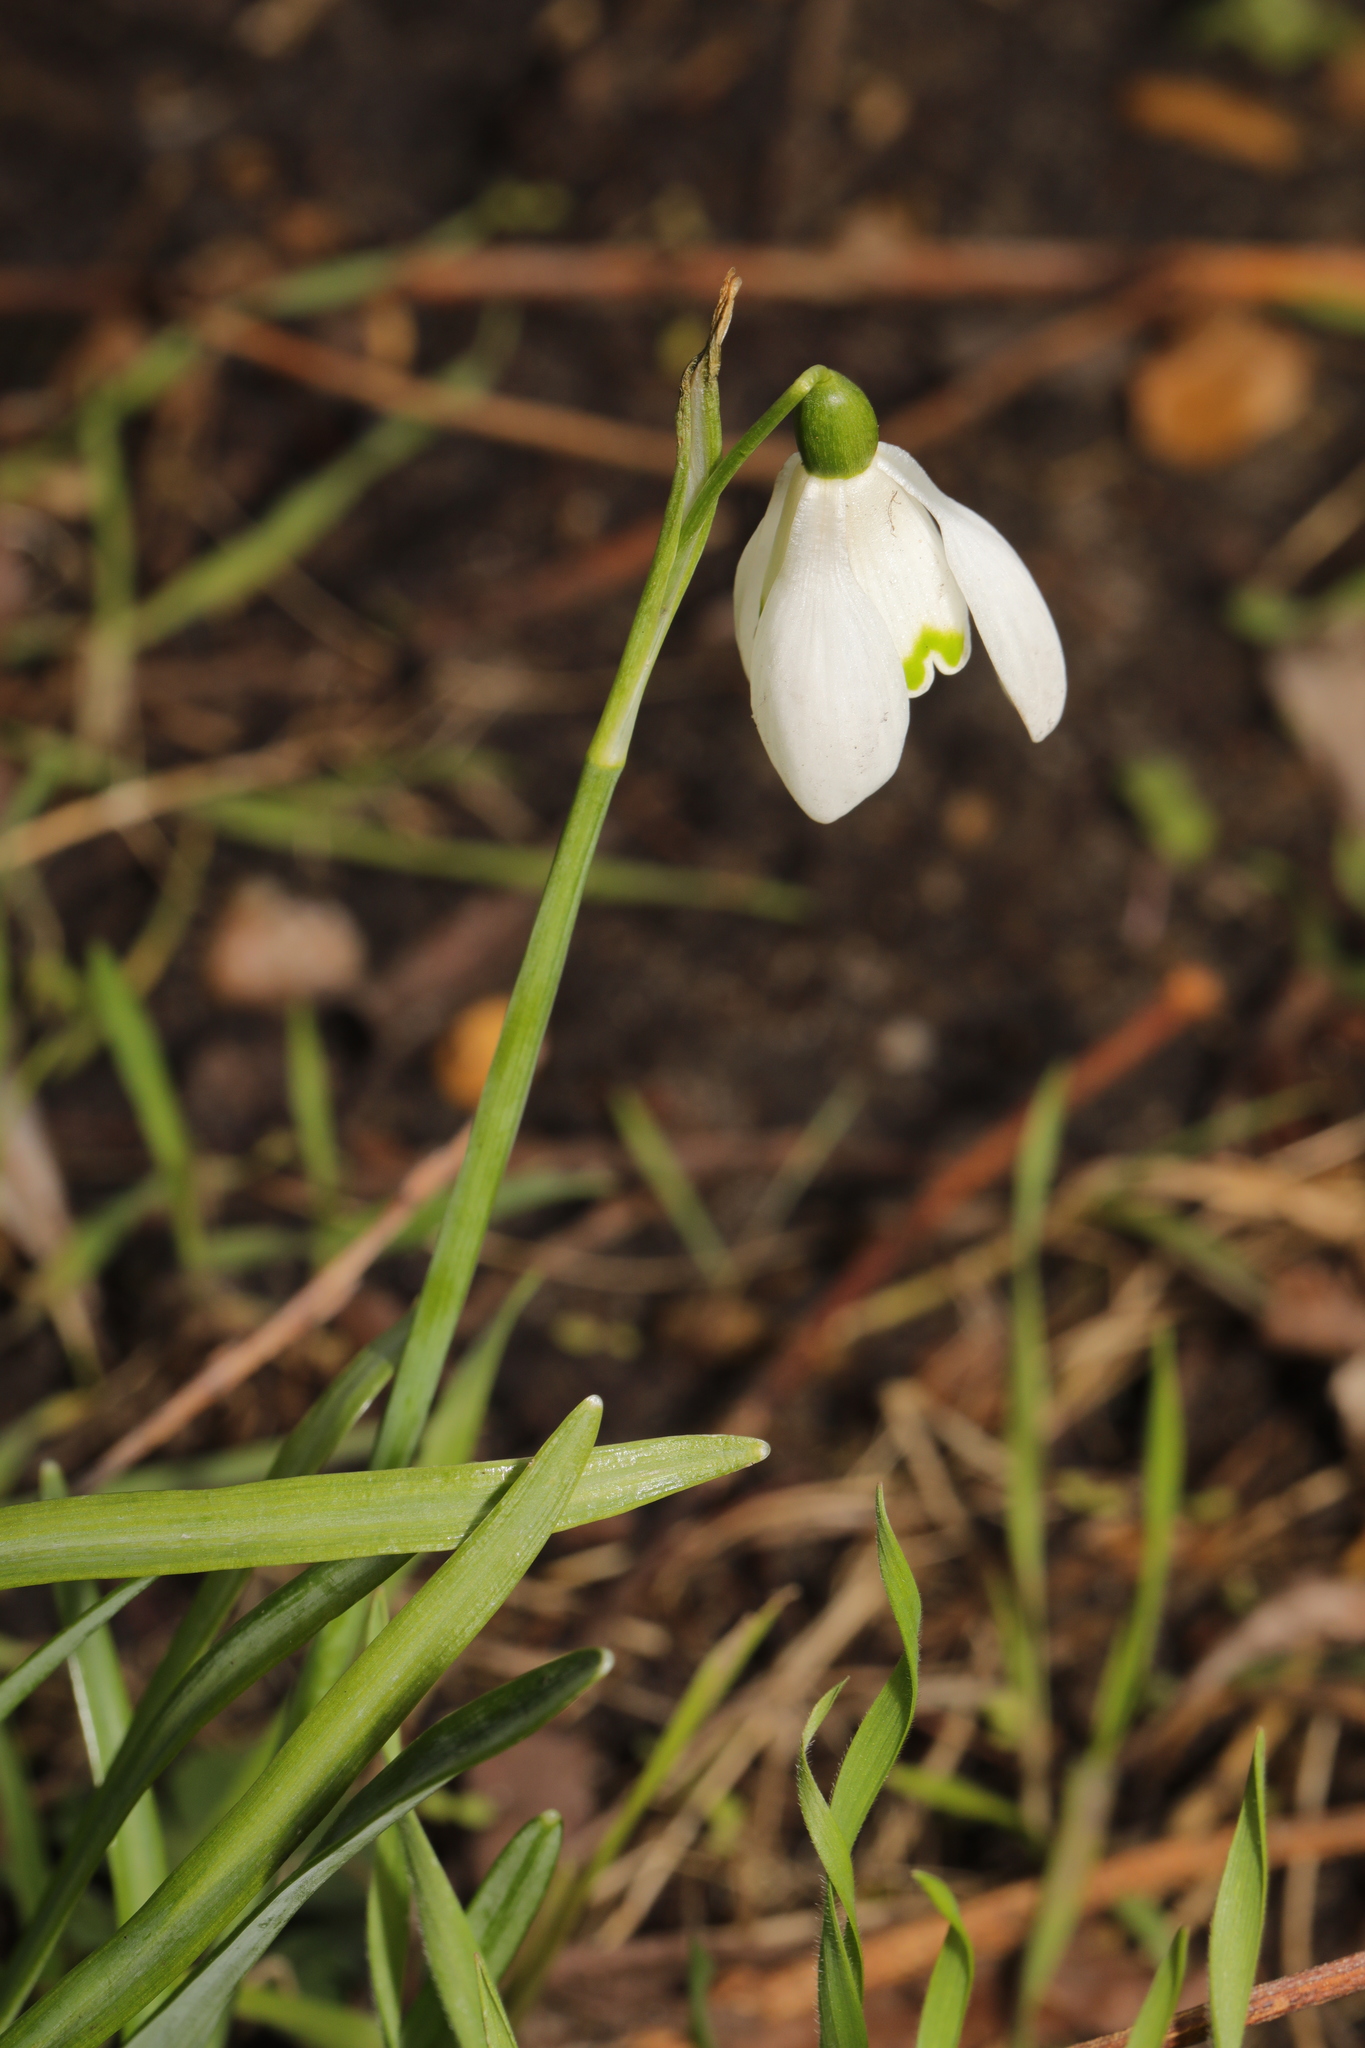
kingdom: Plantae
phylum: Tracheophyta
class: Liliopsida
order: Asparagales
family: Amaryllidaceae
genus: Galanthus
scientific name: Galanthus nivalis
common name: Snowdrop
